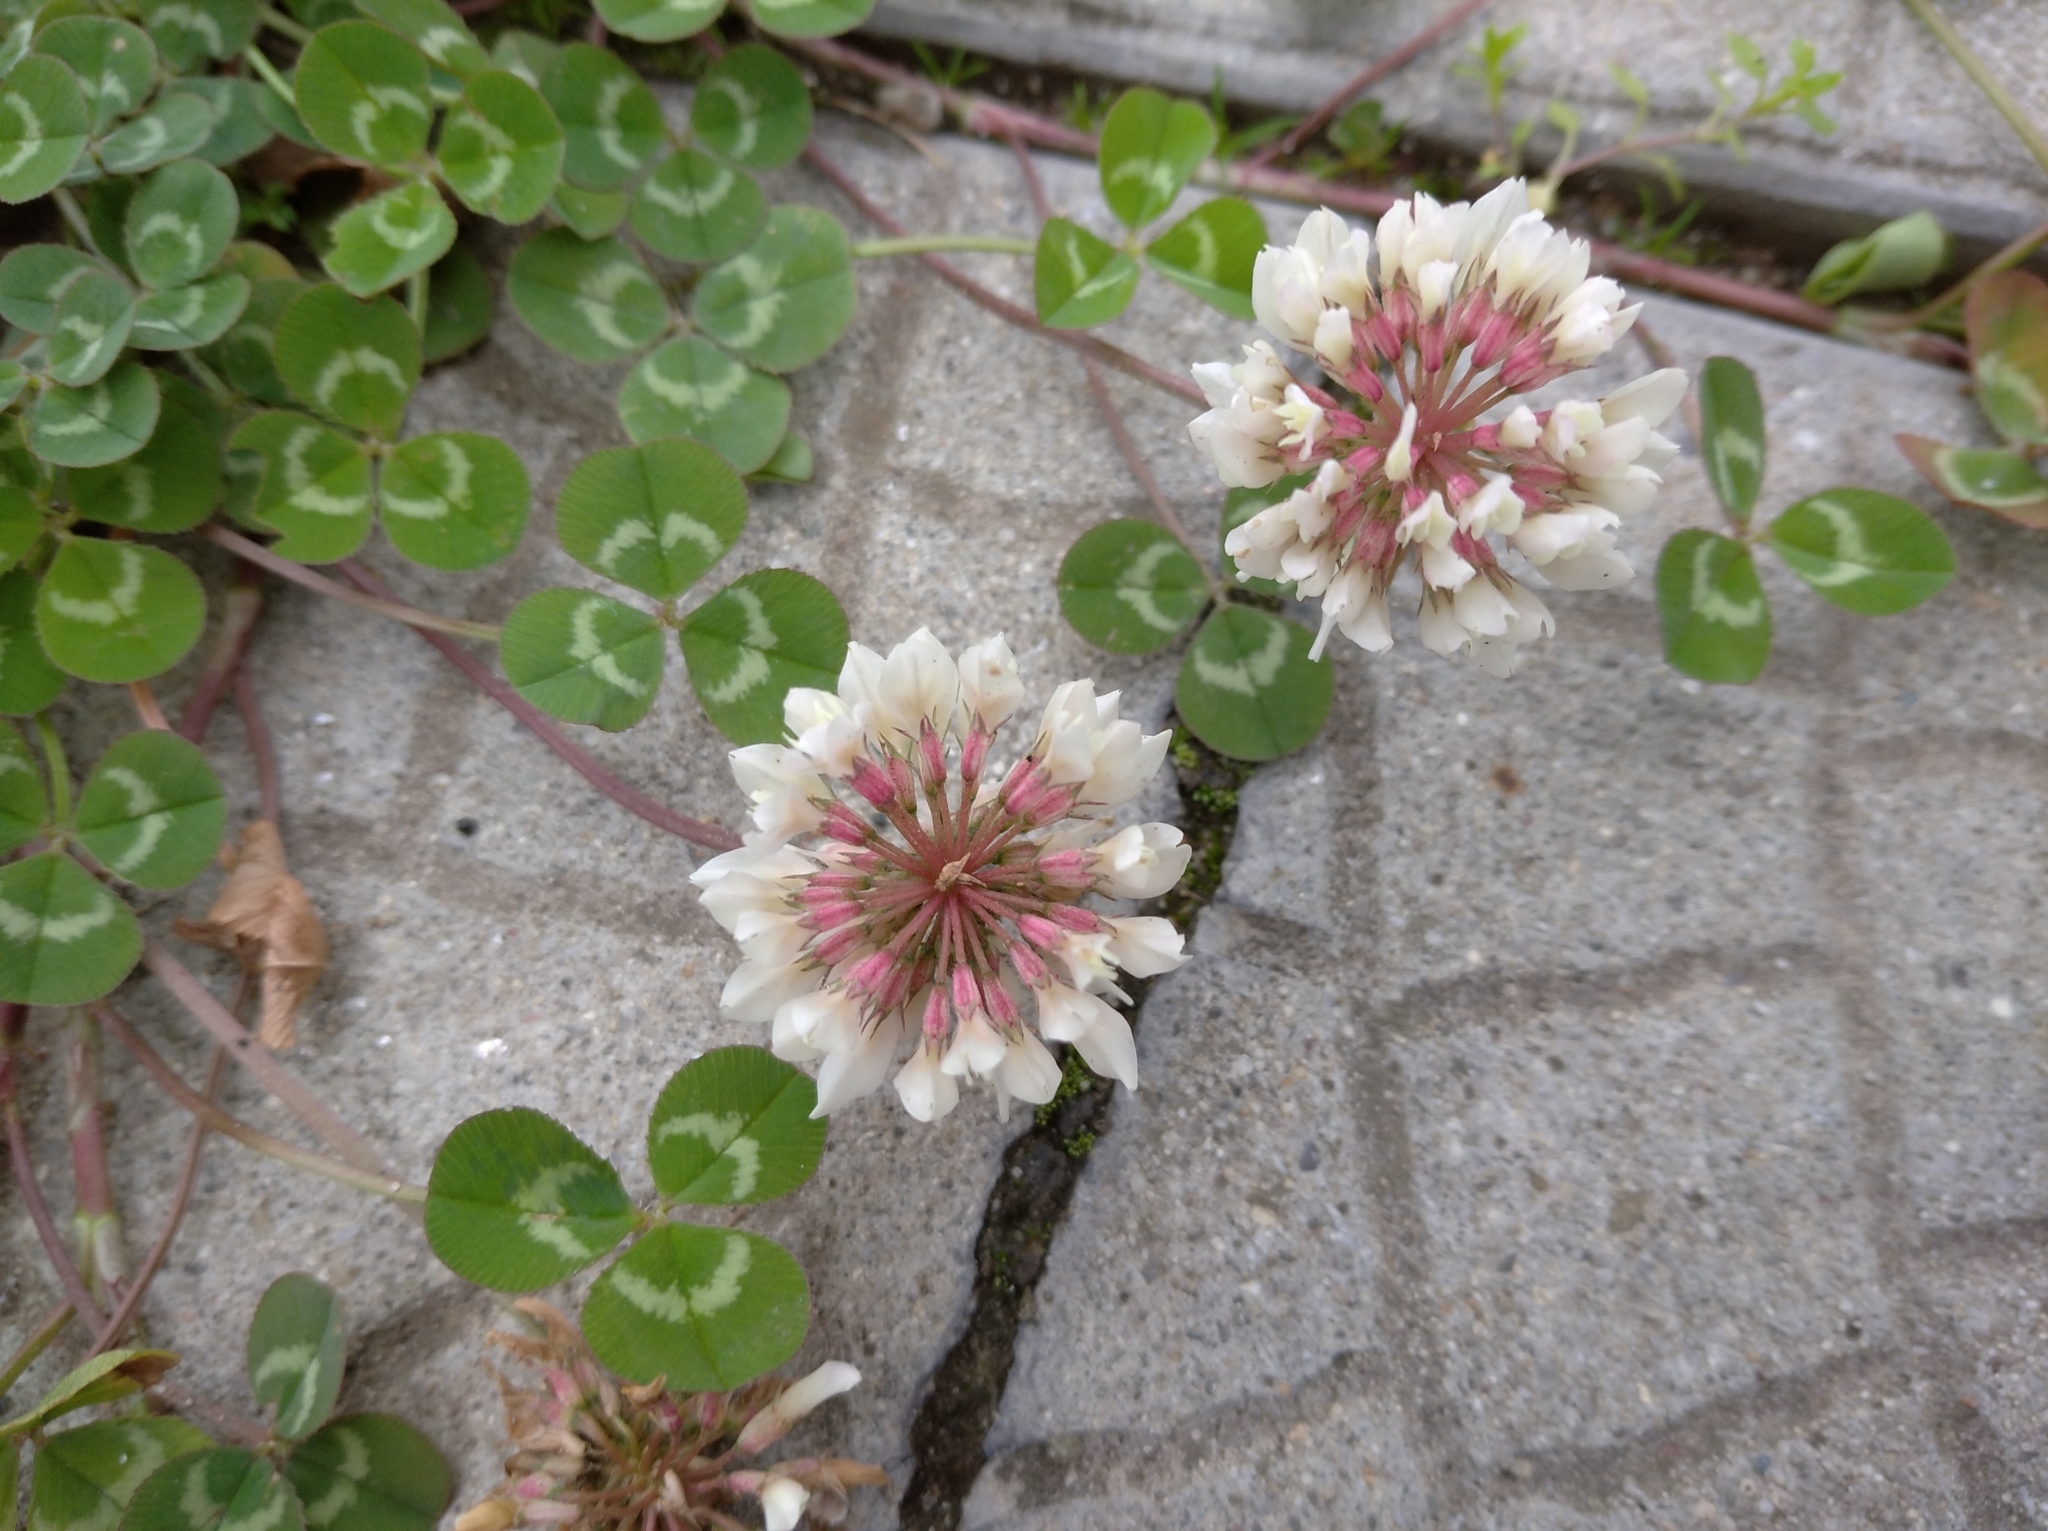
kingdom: Plantae
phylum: Tracheophyta
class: Magnoliopsida
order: Fabales
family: Fabaceae
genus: Trifolium
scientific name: Trifolium repens
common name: White clover
